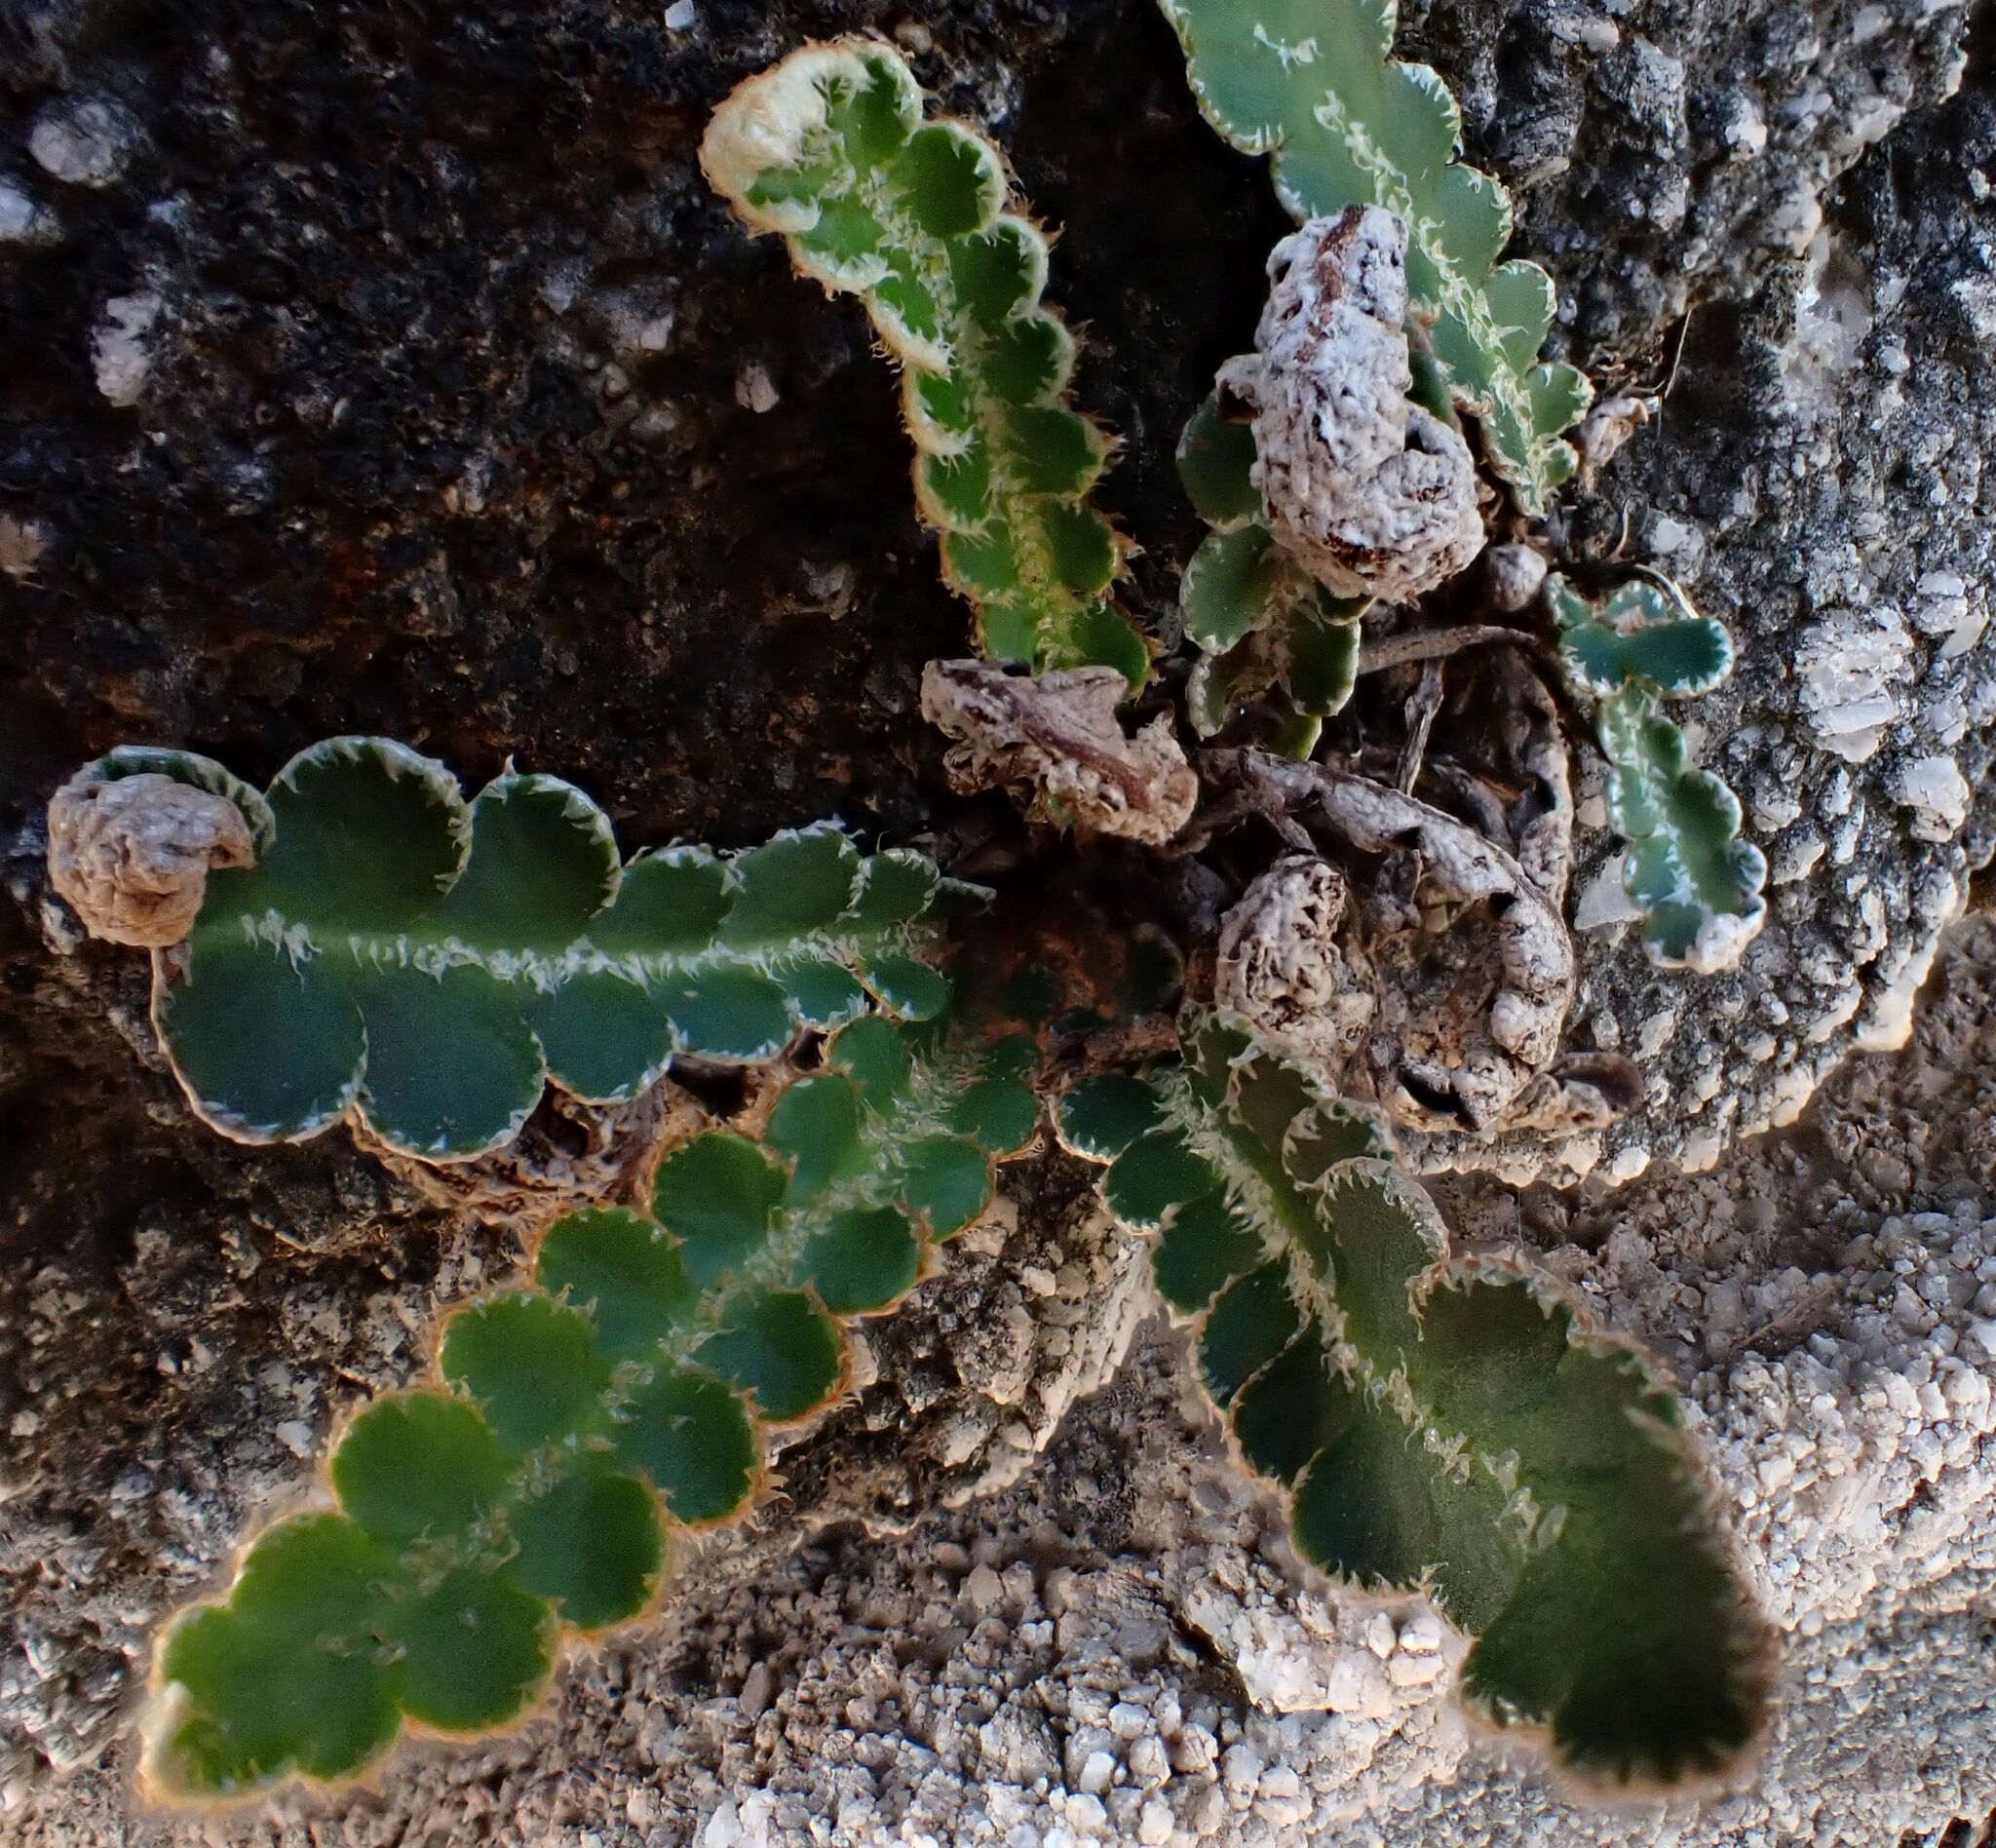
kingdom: Plantae
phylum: Tracheophyta
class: Polypodiopsida
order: Polypodiales
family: Aspleniaceae
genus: Asplenium
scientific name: Asplenium ceterach
